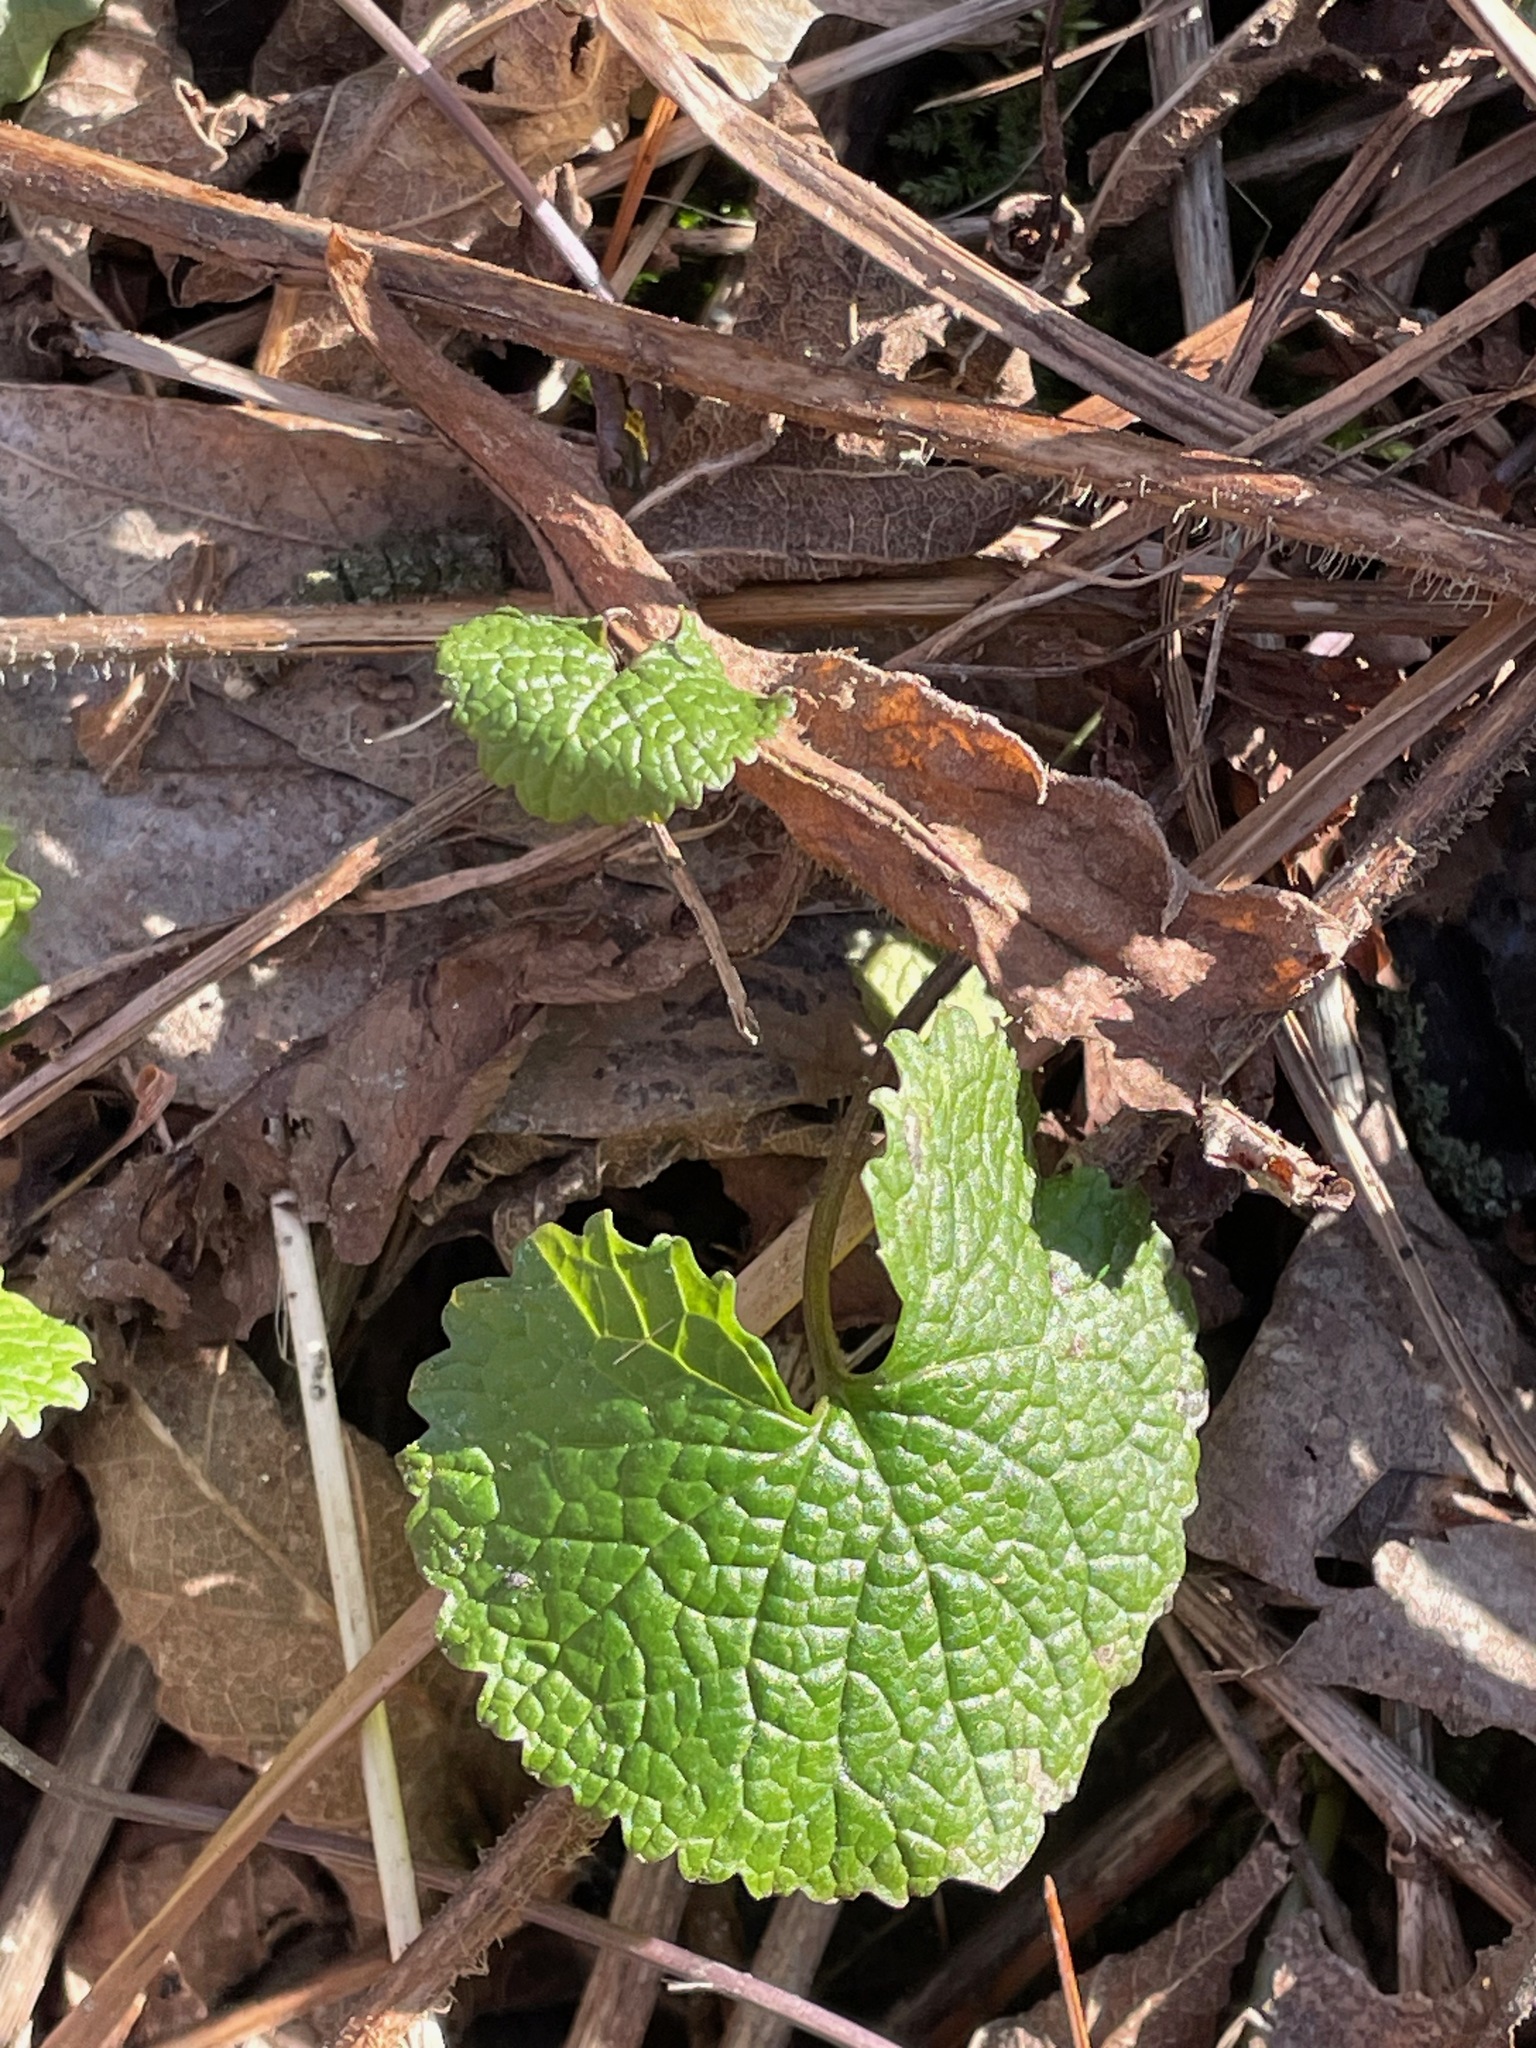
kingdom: Plantae
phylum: Tracheophyta
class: Magnoliopsida
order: Brassicales
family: Brassicaceae
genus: Alliaria
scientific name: Alliaria petiolata
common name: Garlic mustard
